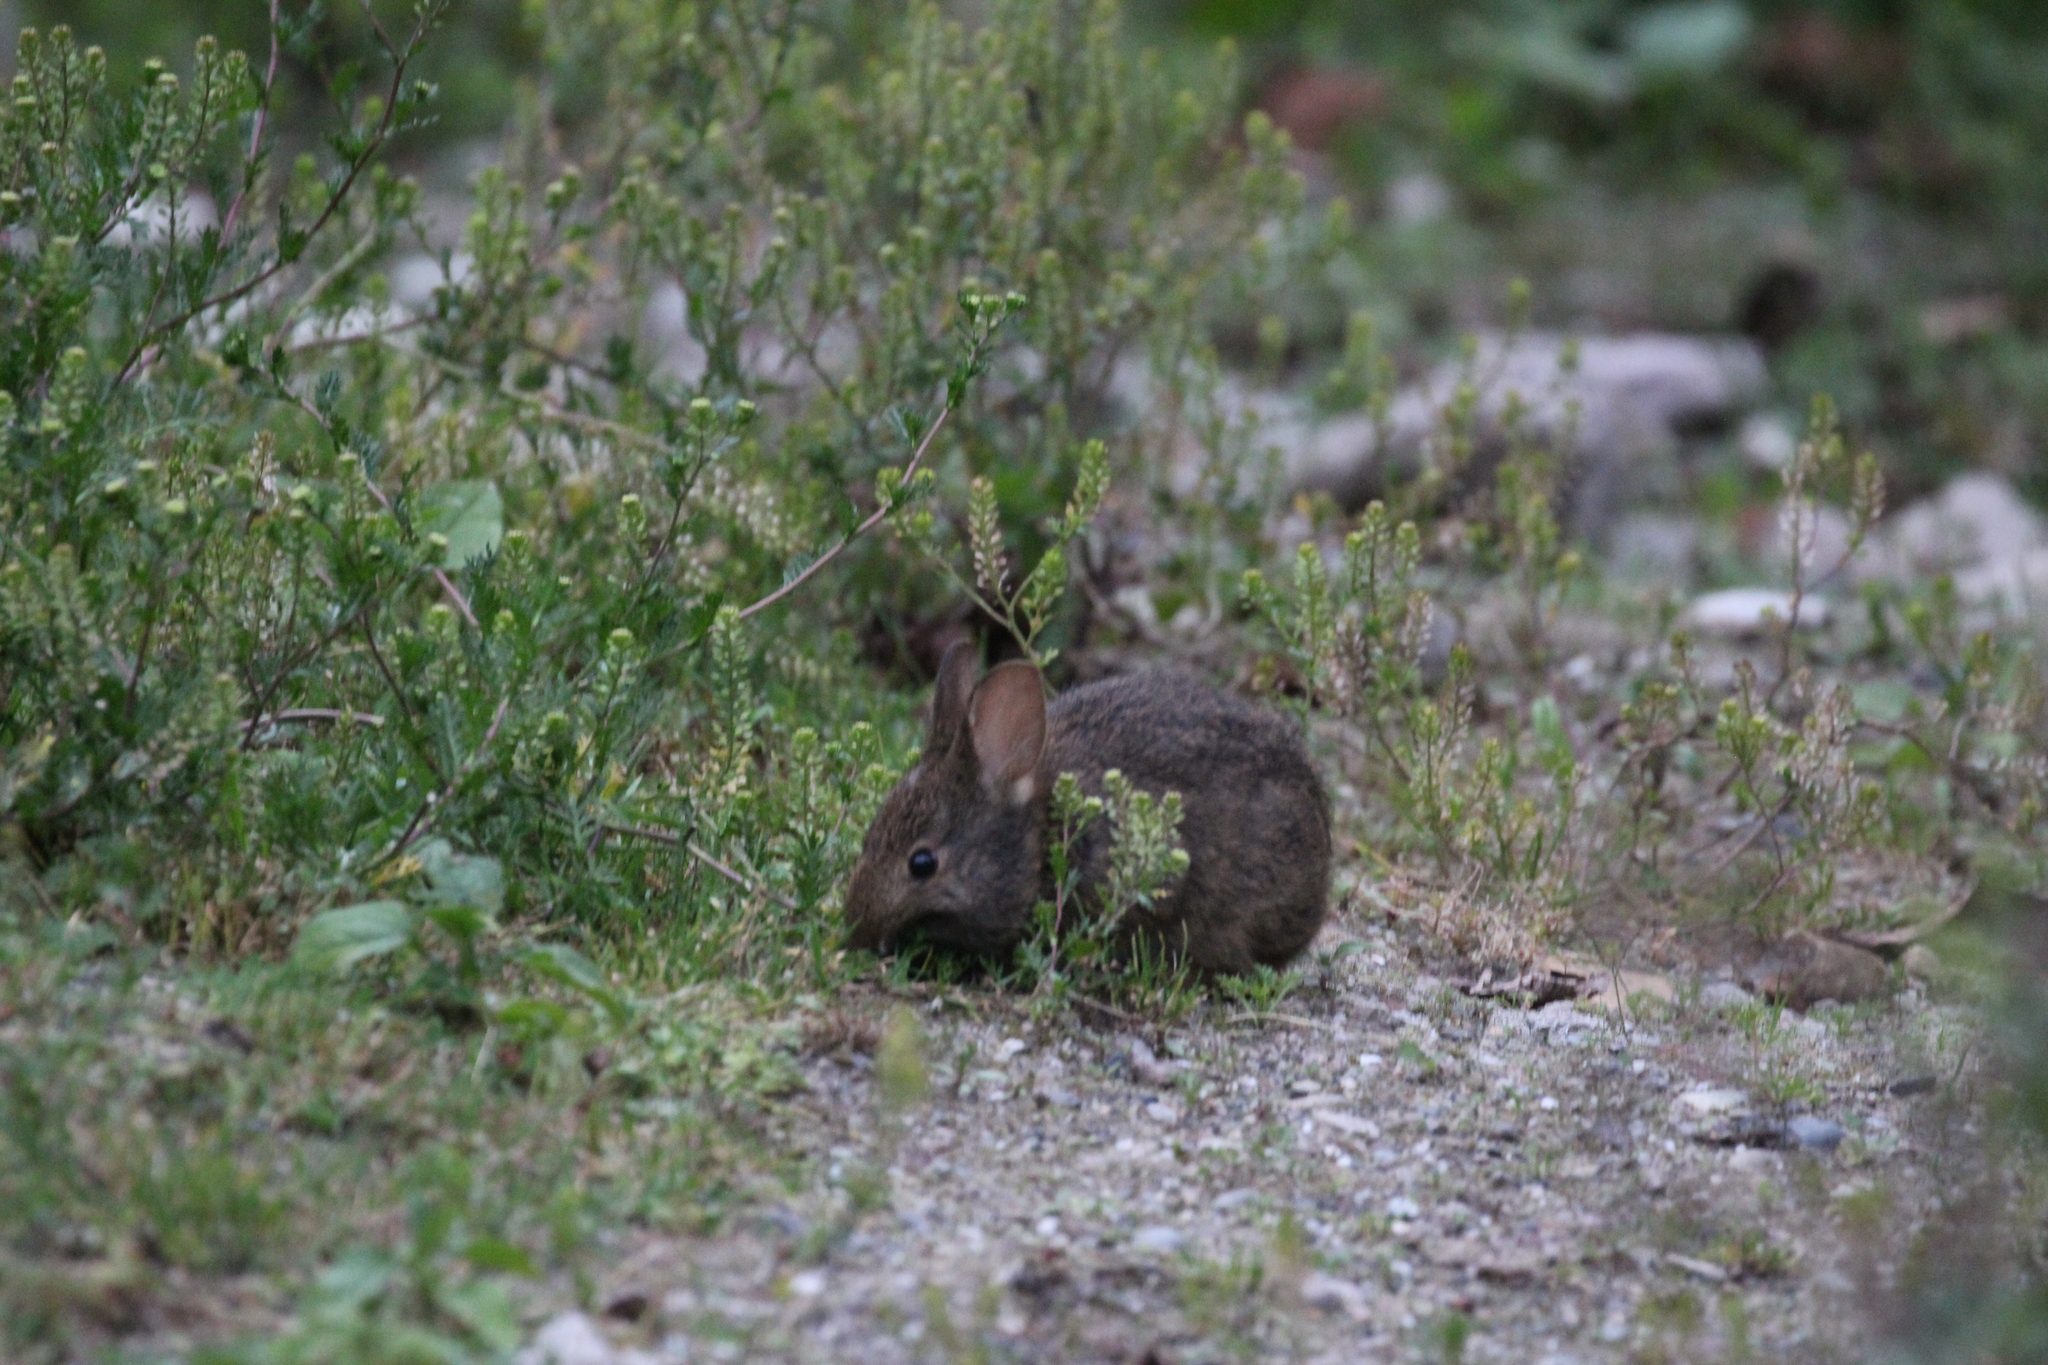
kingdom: Animalia
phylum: Chordata
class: Mammalia
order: Lagomorpha
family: Leporidae
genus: Sylvilagus
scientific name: Sylvilagus andinus
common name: Andean cottontail
